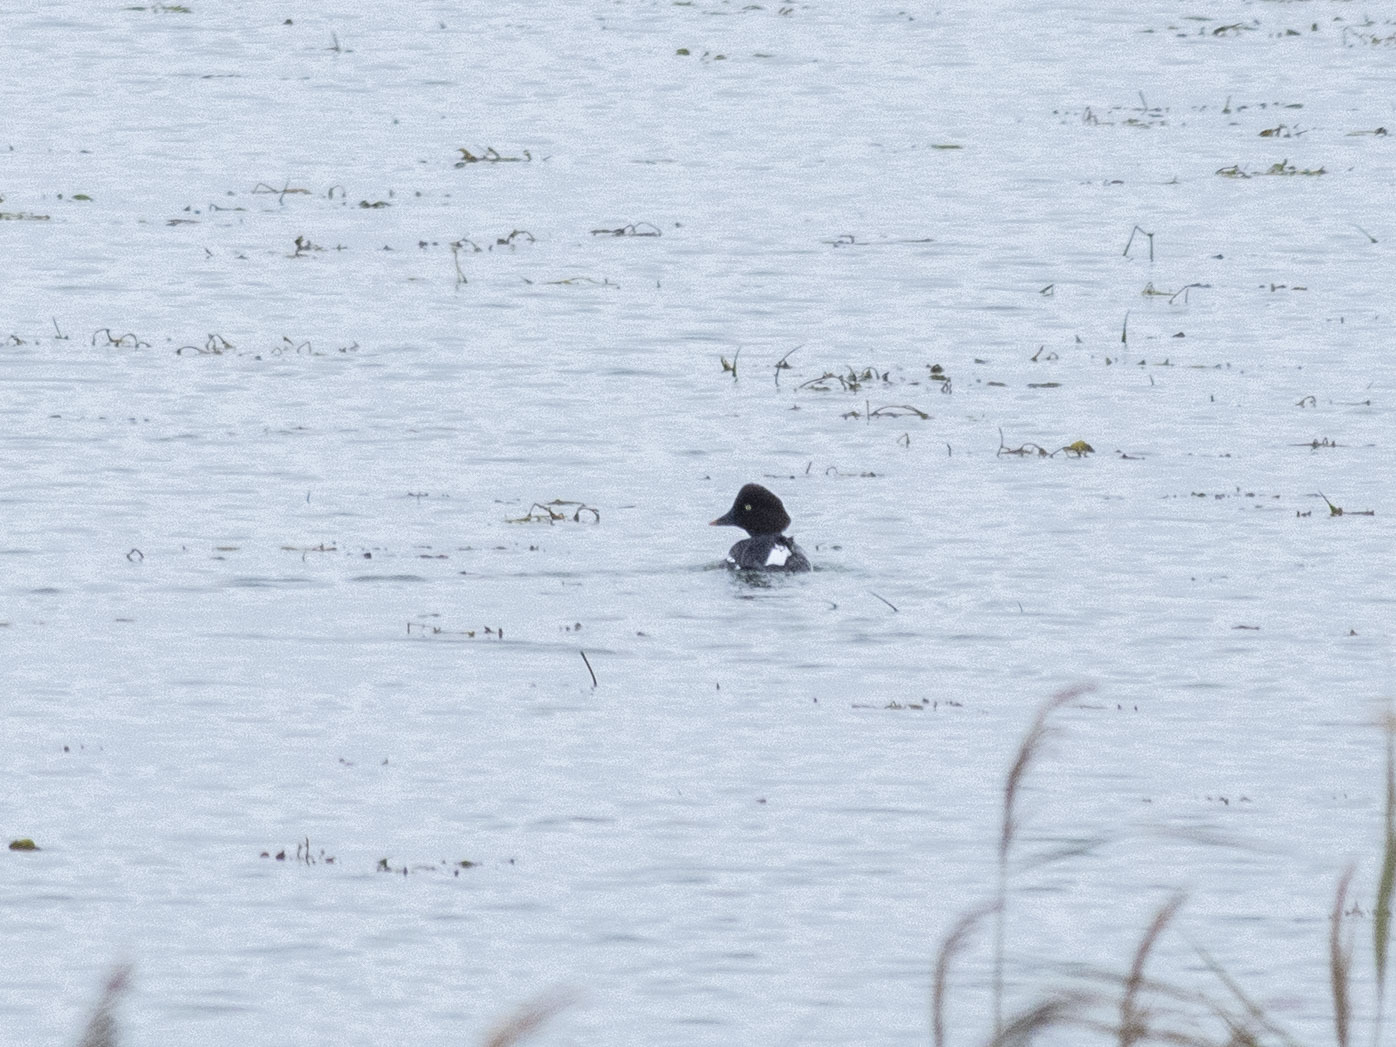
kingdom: Animalia
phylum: Chordata
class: Aves
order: Anseriformes
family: Anatidae
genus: Bucephala
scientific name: Bucephala clangula
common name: Common goldeneye
